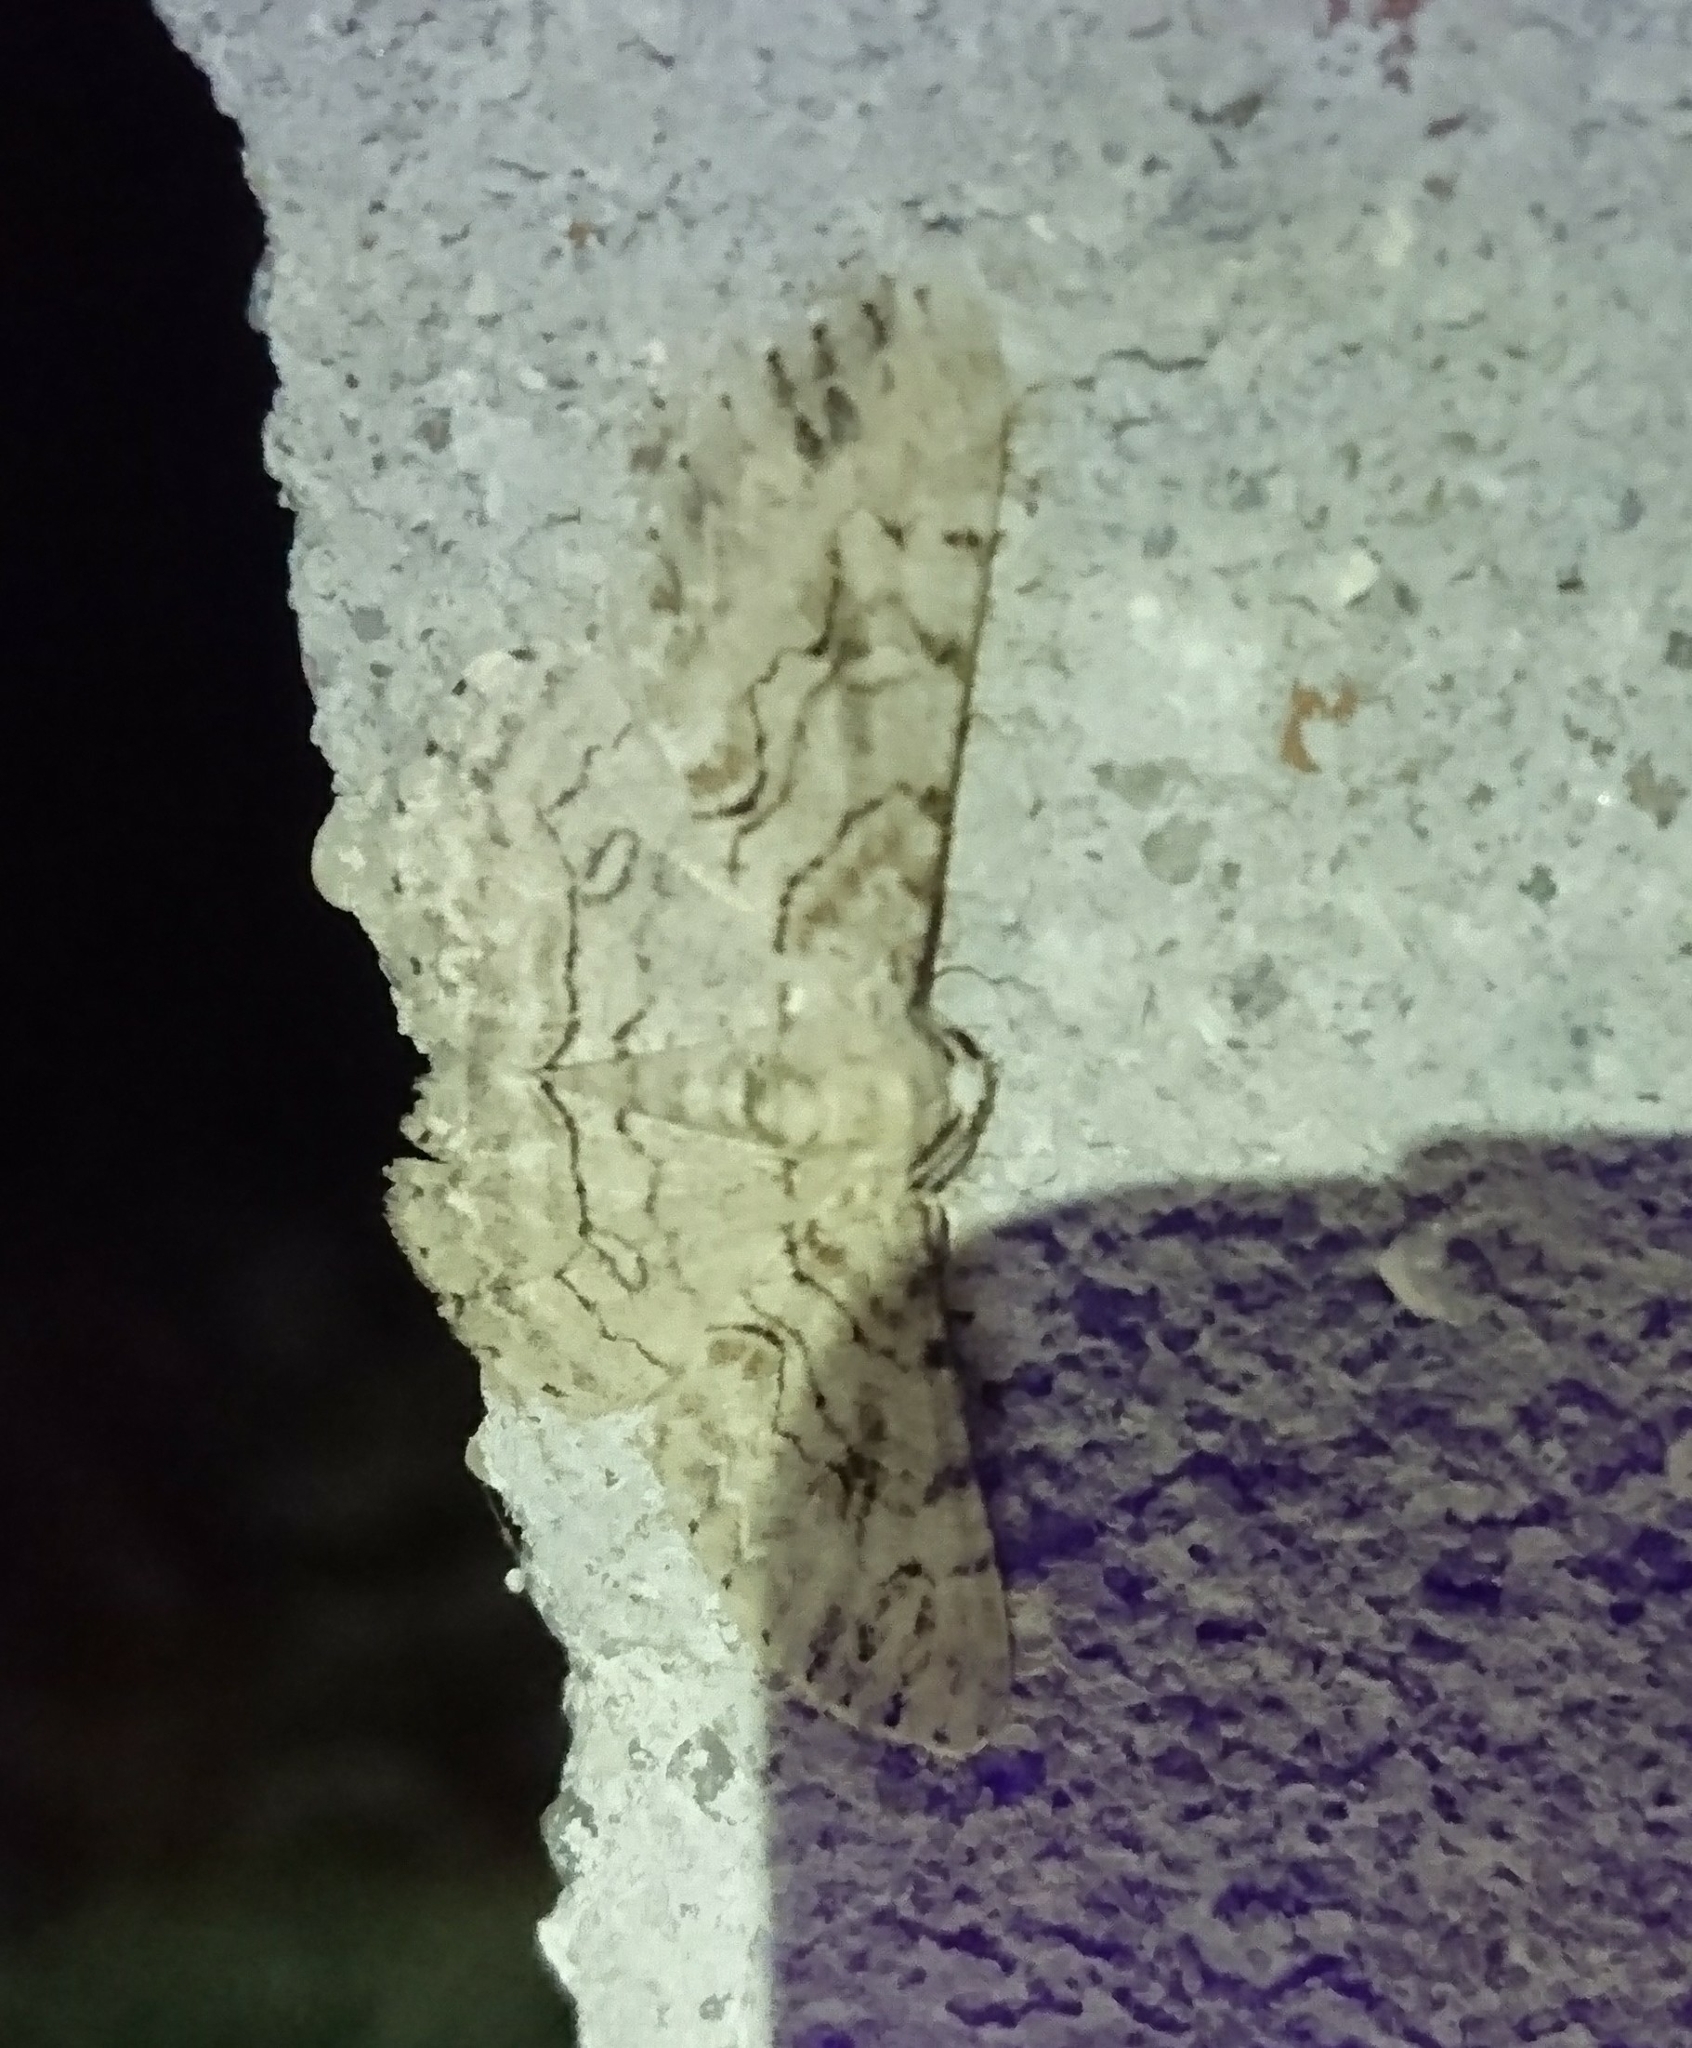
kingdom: Animalia
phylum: Arthropoda
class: Insecta
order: Lepidoptera
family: Geometridae
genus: Iridopsis
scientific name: Iridopsis defectaria
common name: Brown-shaded gray
